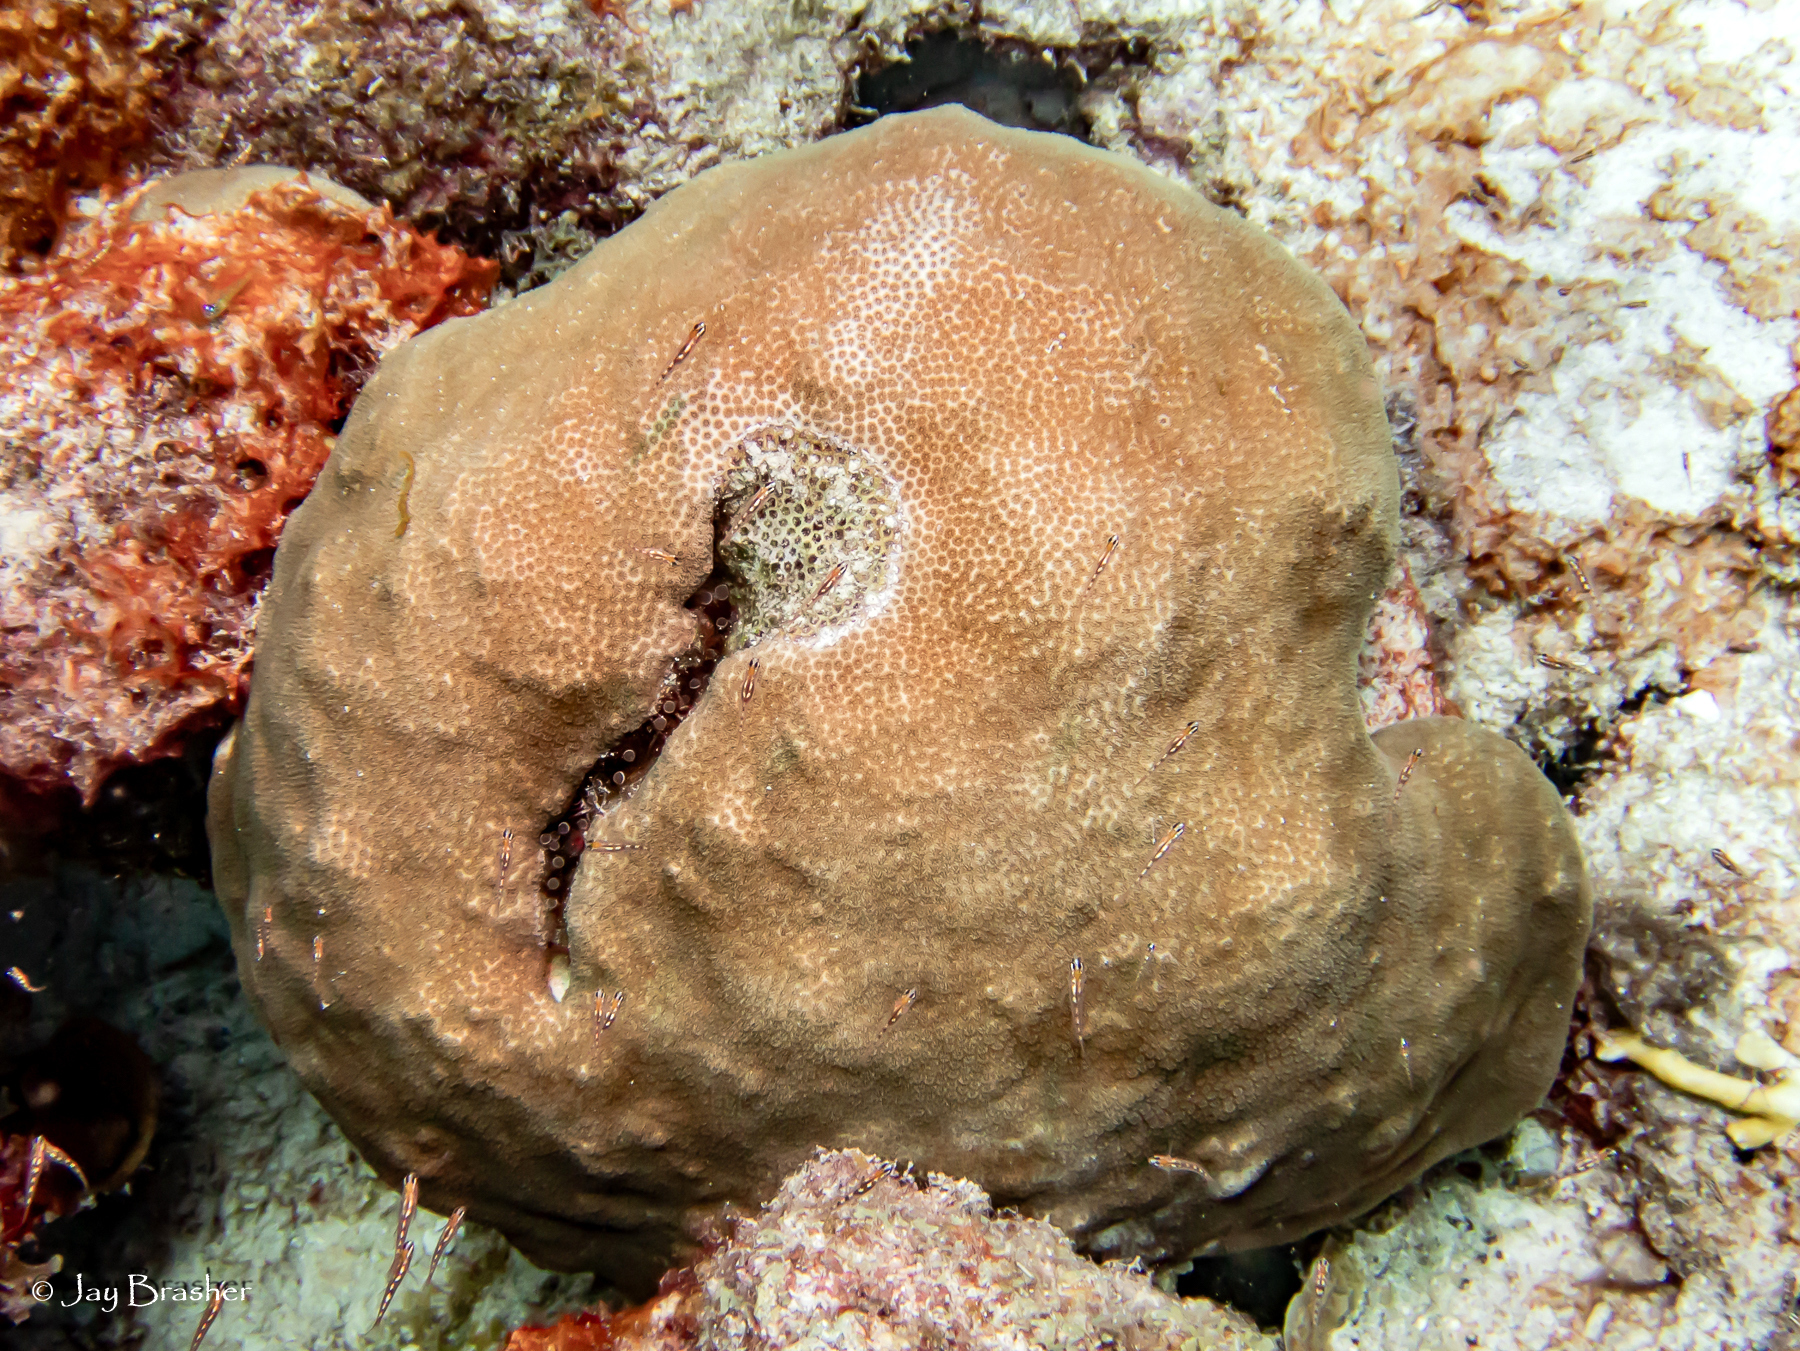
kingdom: Animalia
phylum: Cnidaria
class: Anthozoa
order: Scleractinia
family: Faviidae
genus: Solenastrea
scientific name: Solenastrea bournoni
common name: Smooth star coral
